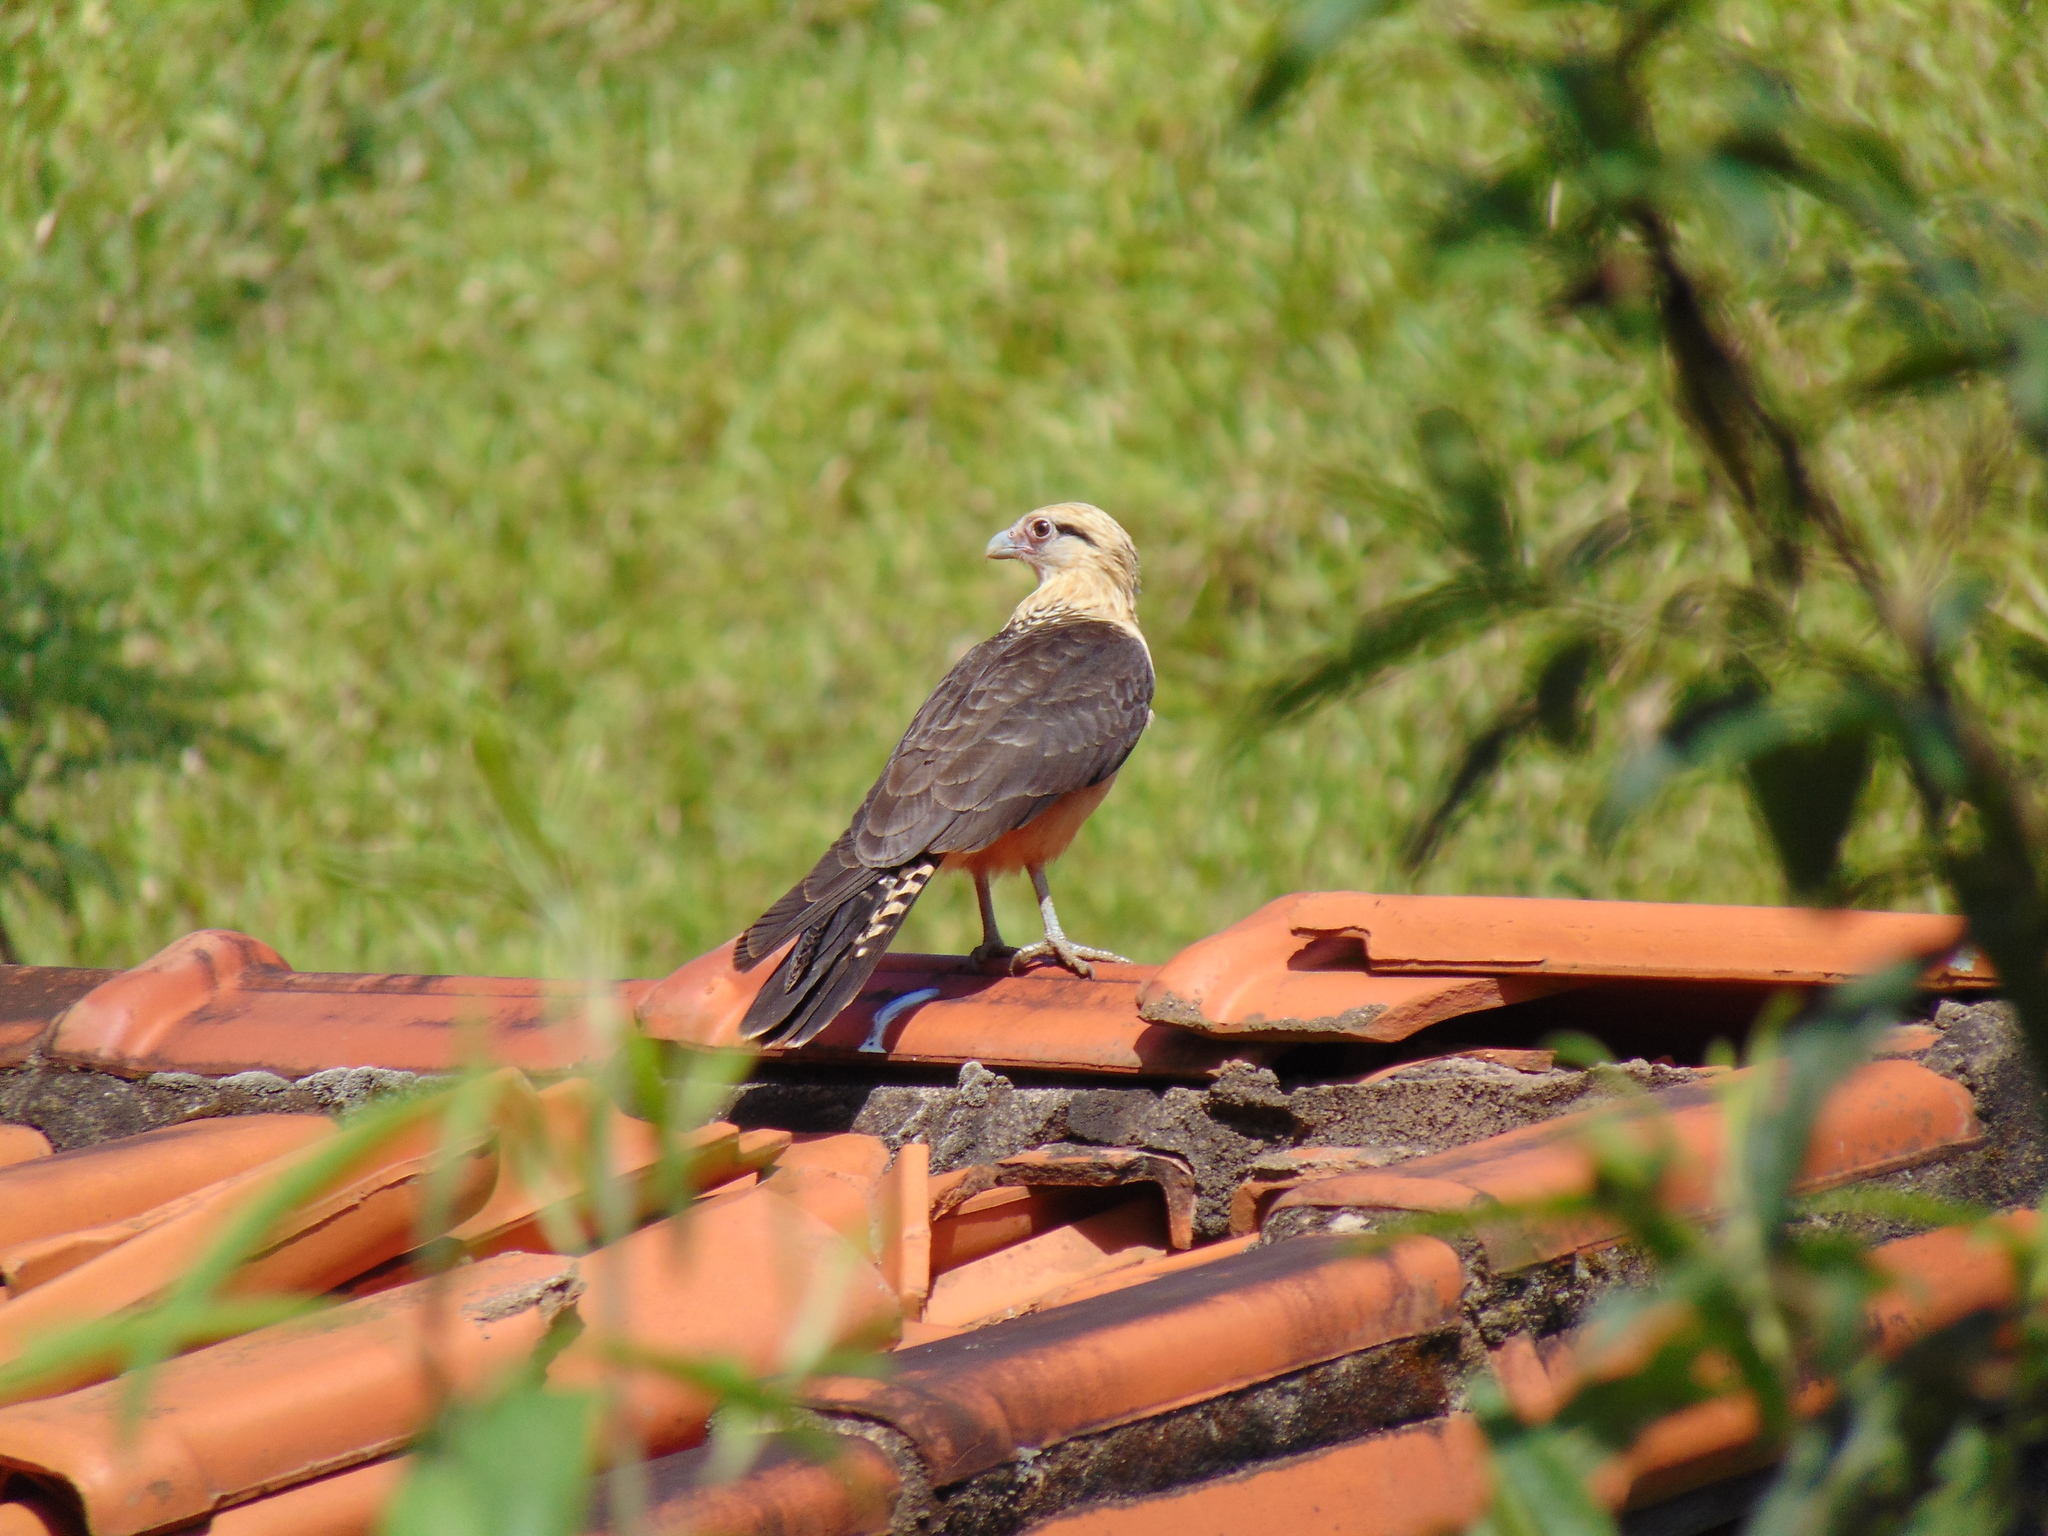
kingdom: Animalia
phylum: Chordata
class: Aves
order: Falconiformes
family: Falconidae
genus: Daptrius
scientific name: Daptrius
